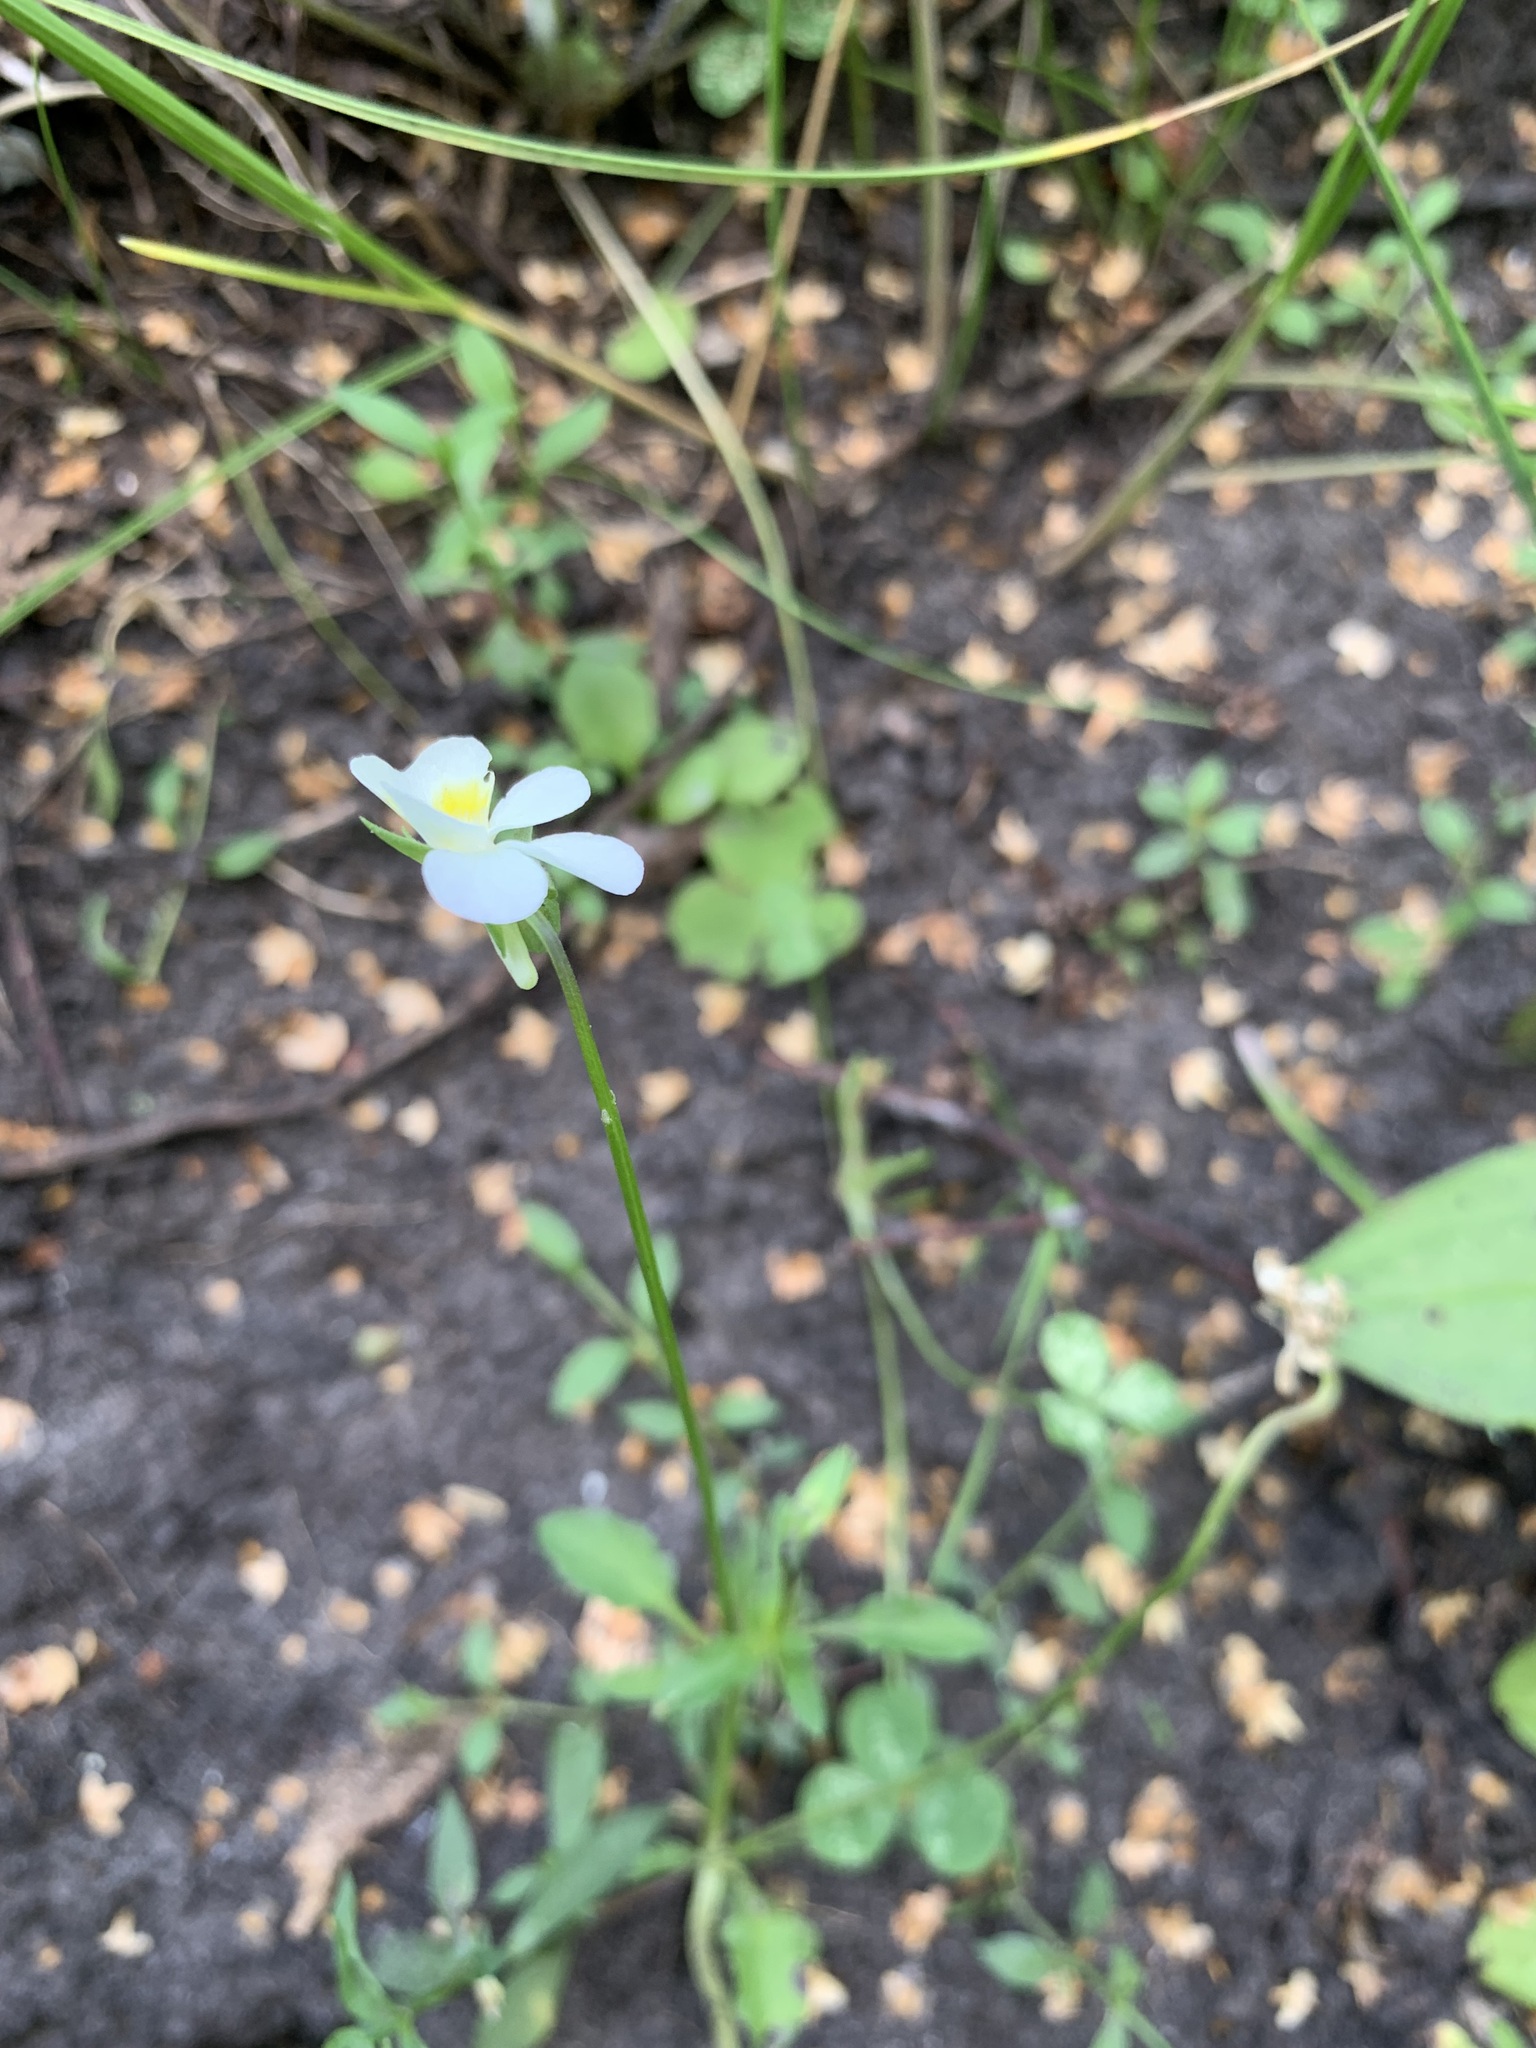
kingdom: Plantae
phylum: Tracheophyta
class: Magnoliopsida
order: Malpighiales
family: Violaceae
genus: Viola
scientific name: Viola arvensis
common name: Field pansy
